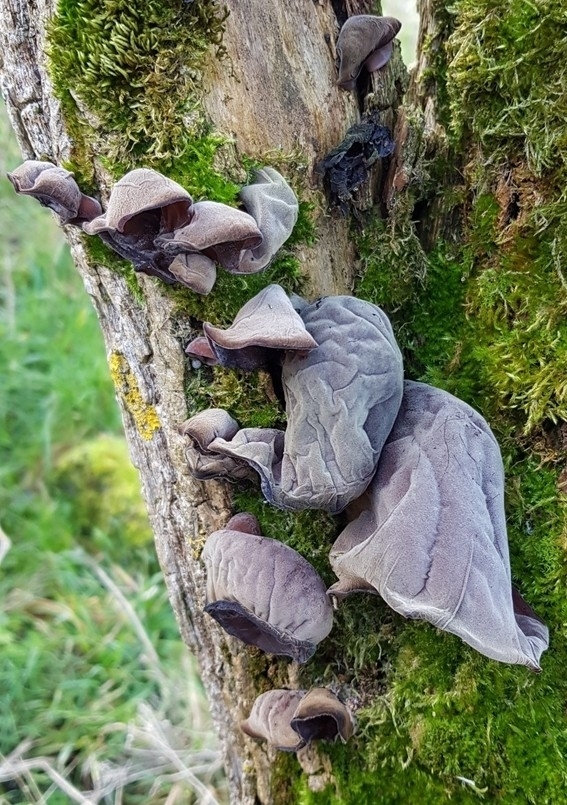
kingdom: Fungi
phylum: Basidiomycota
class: Agaricomycetes
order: Auriculariales
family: Auriculariaceae
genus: Auricularia
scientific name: Auricularia auricula-judae
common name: Jelly ear
